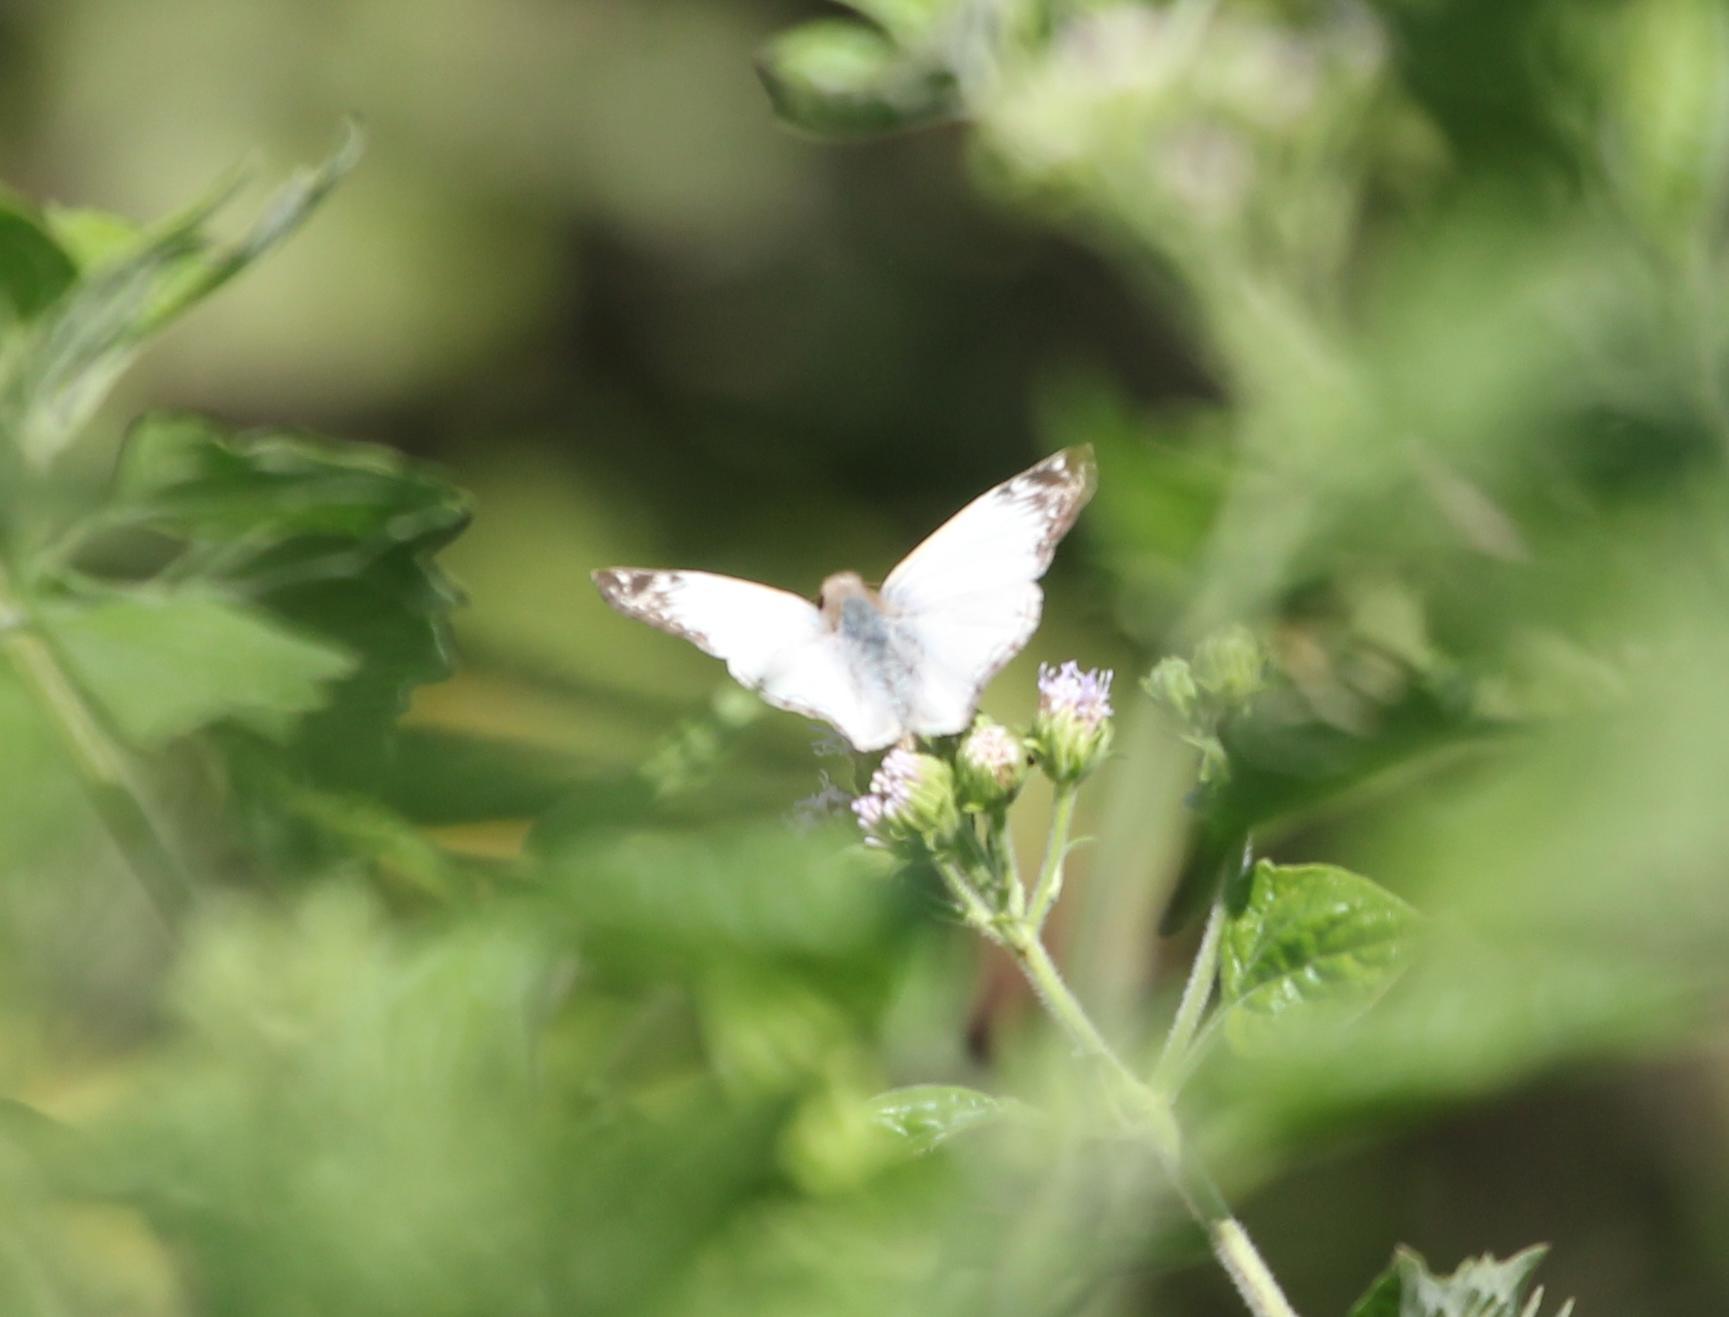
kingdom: Animalia
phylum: Arthropoda
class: Insecta
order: Lepidoptera
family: Hesperiidae
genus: Heliopetes
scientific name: Heliopetes laviana
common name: Laviana white-skipper
